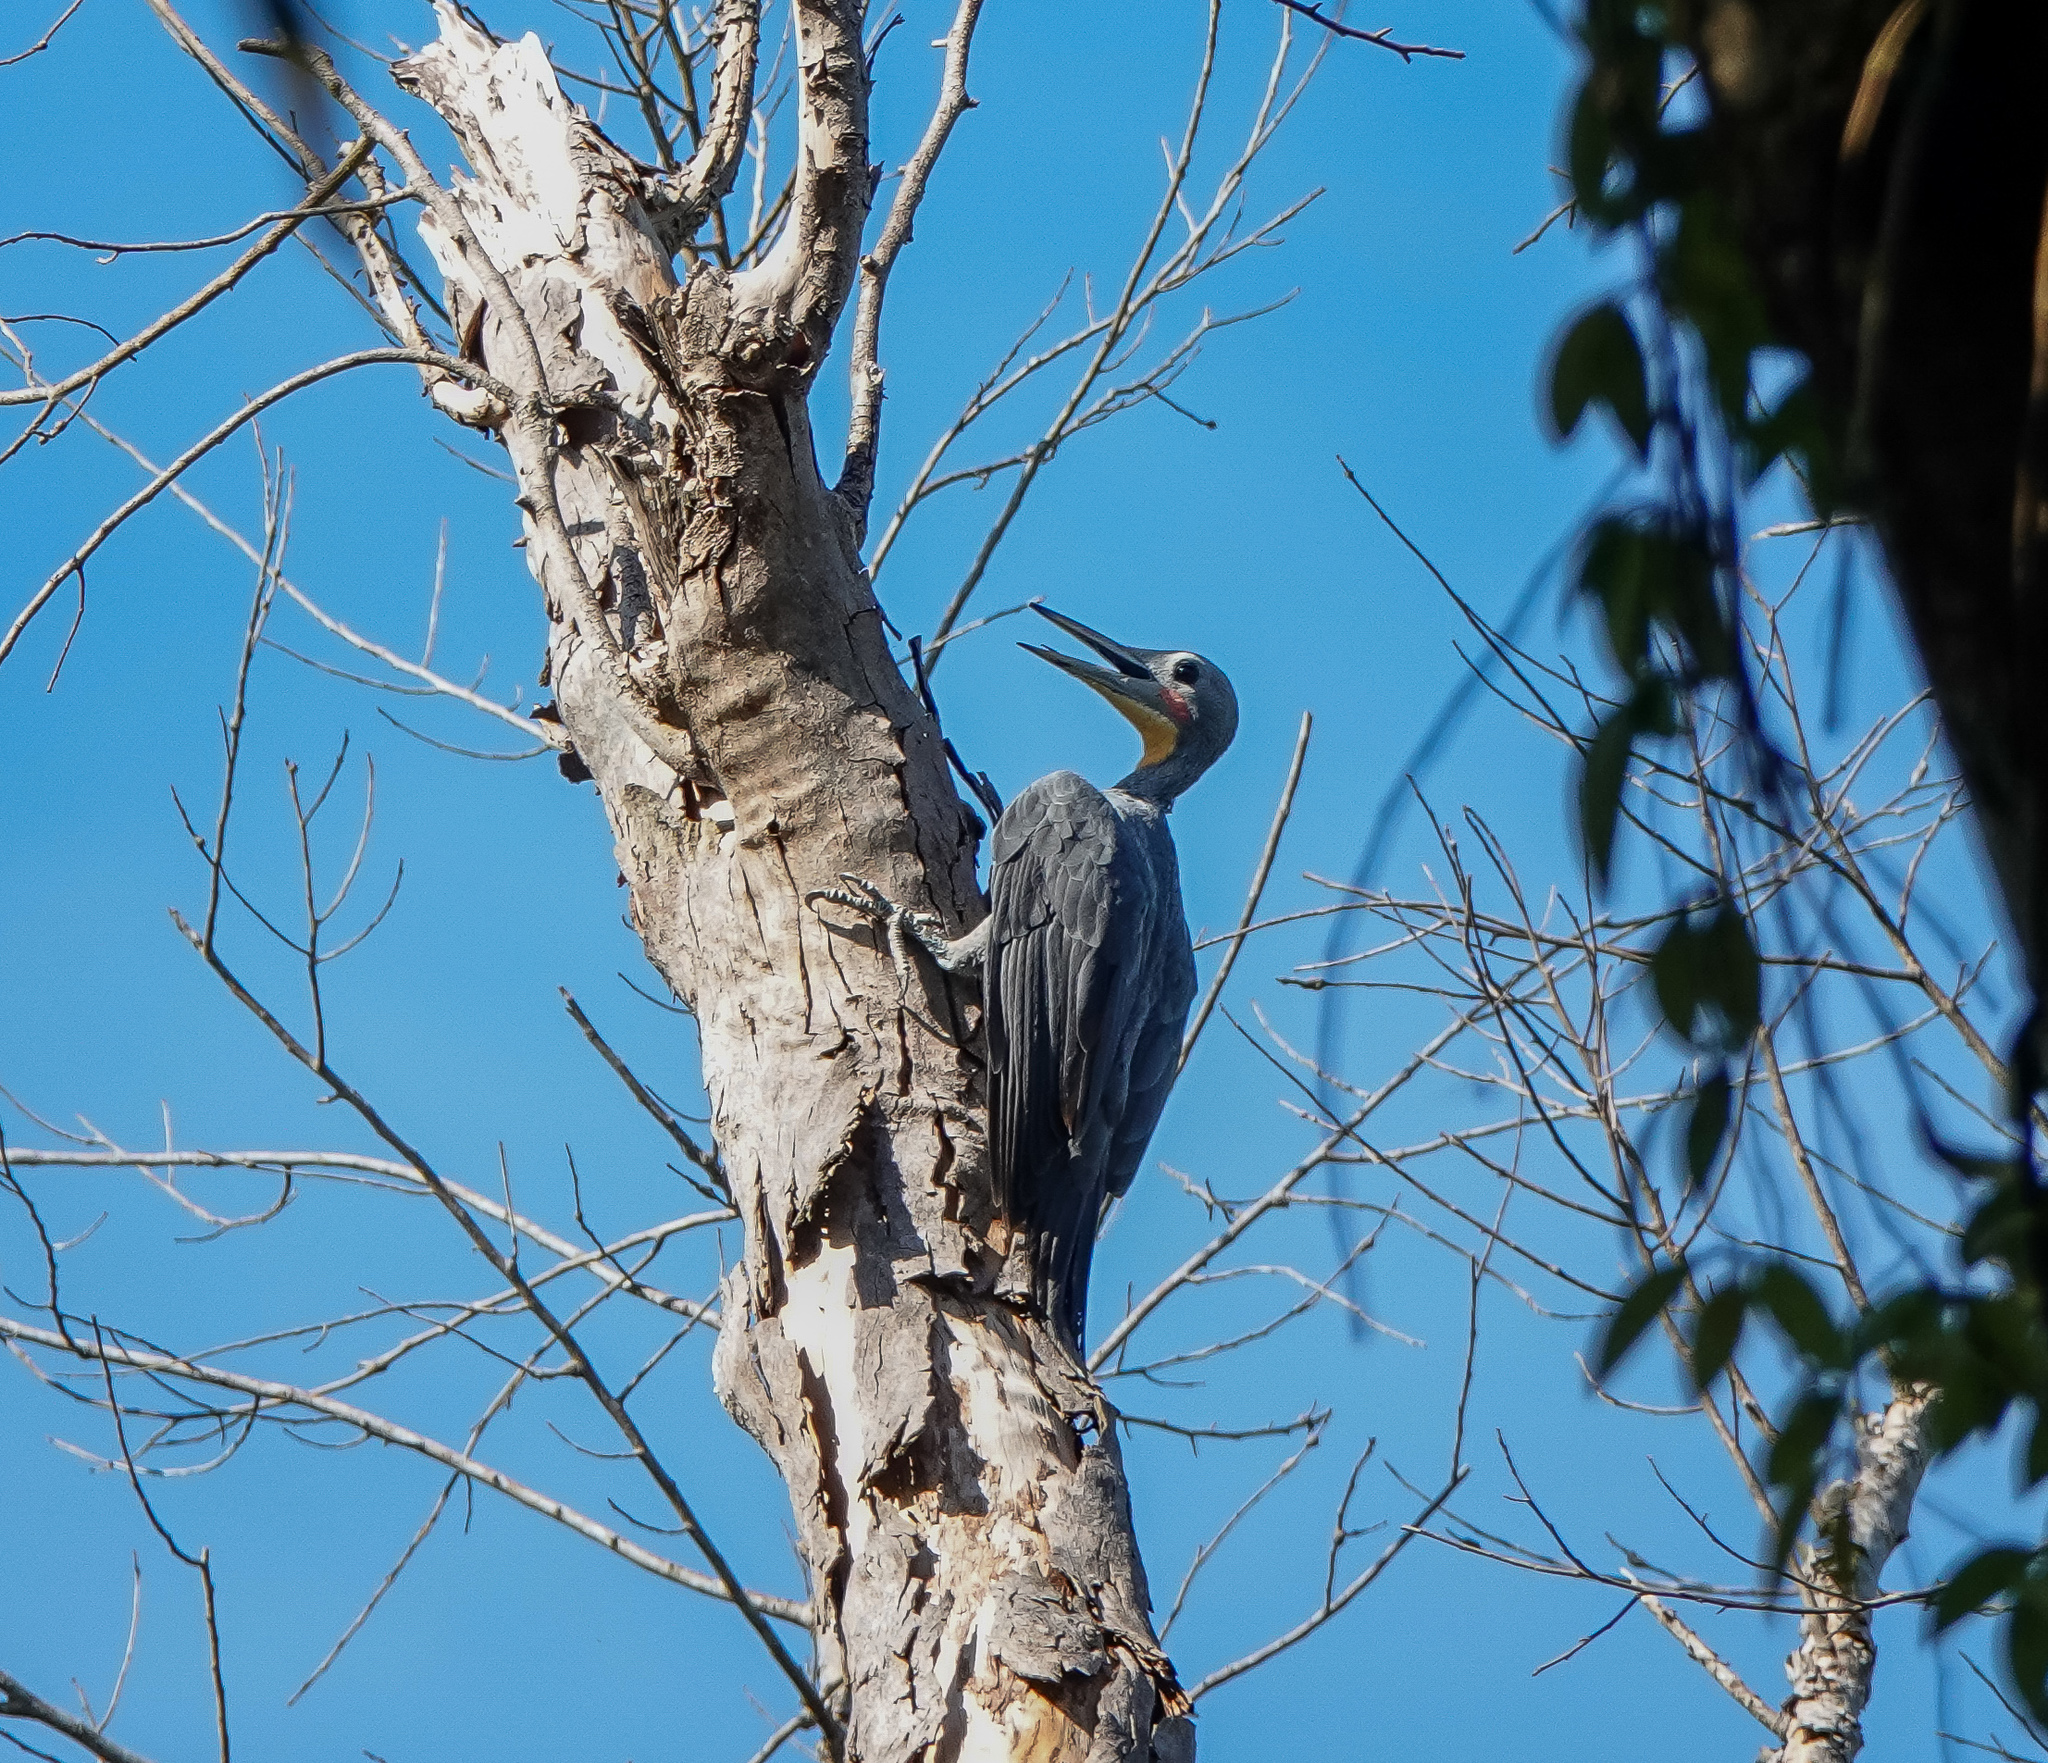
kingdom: Animalia
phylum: Chordata
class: Aves
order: Piciformes
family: Picidae
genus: Mulleripicus
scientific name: Mulleripicus pulverulentus
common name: Great slaty woodpecker
